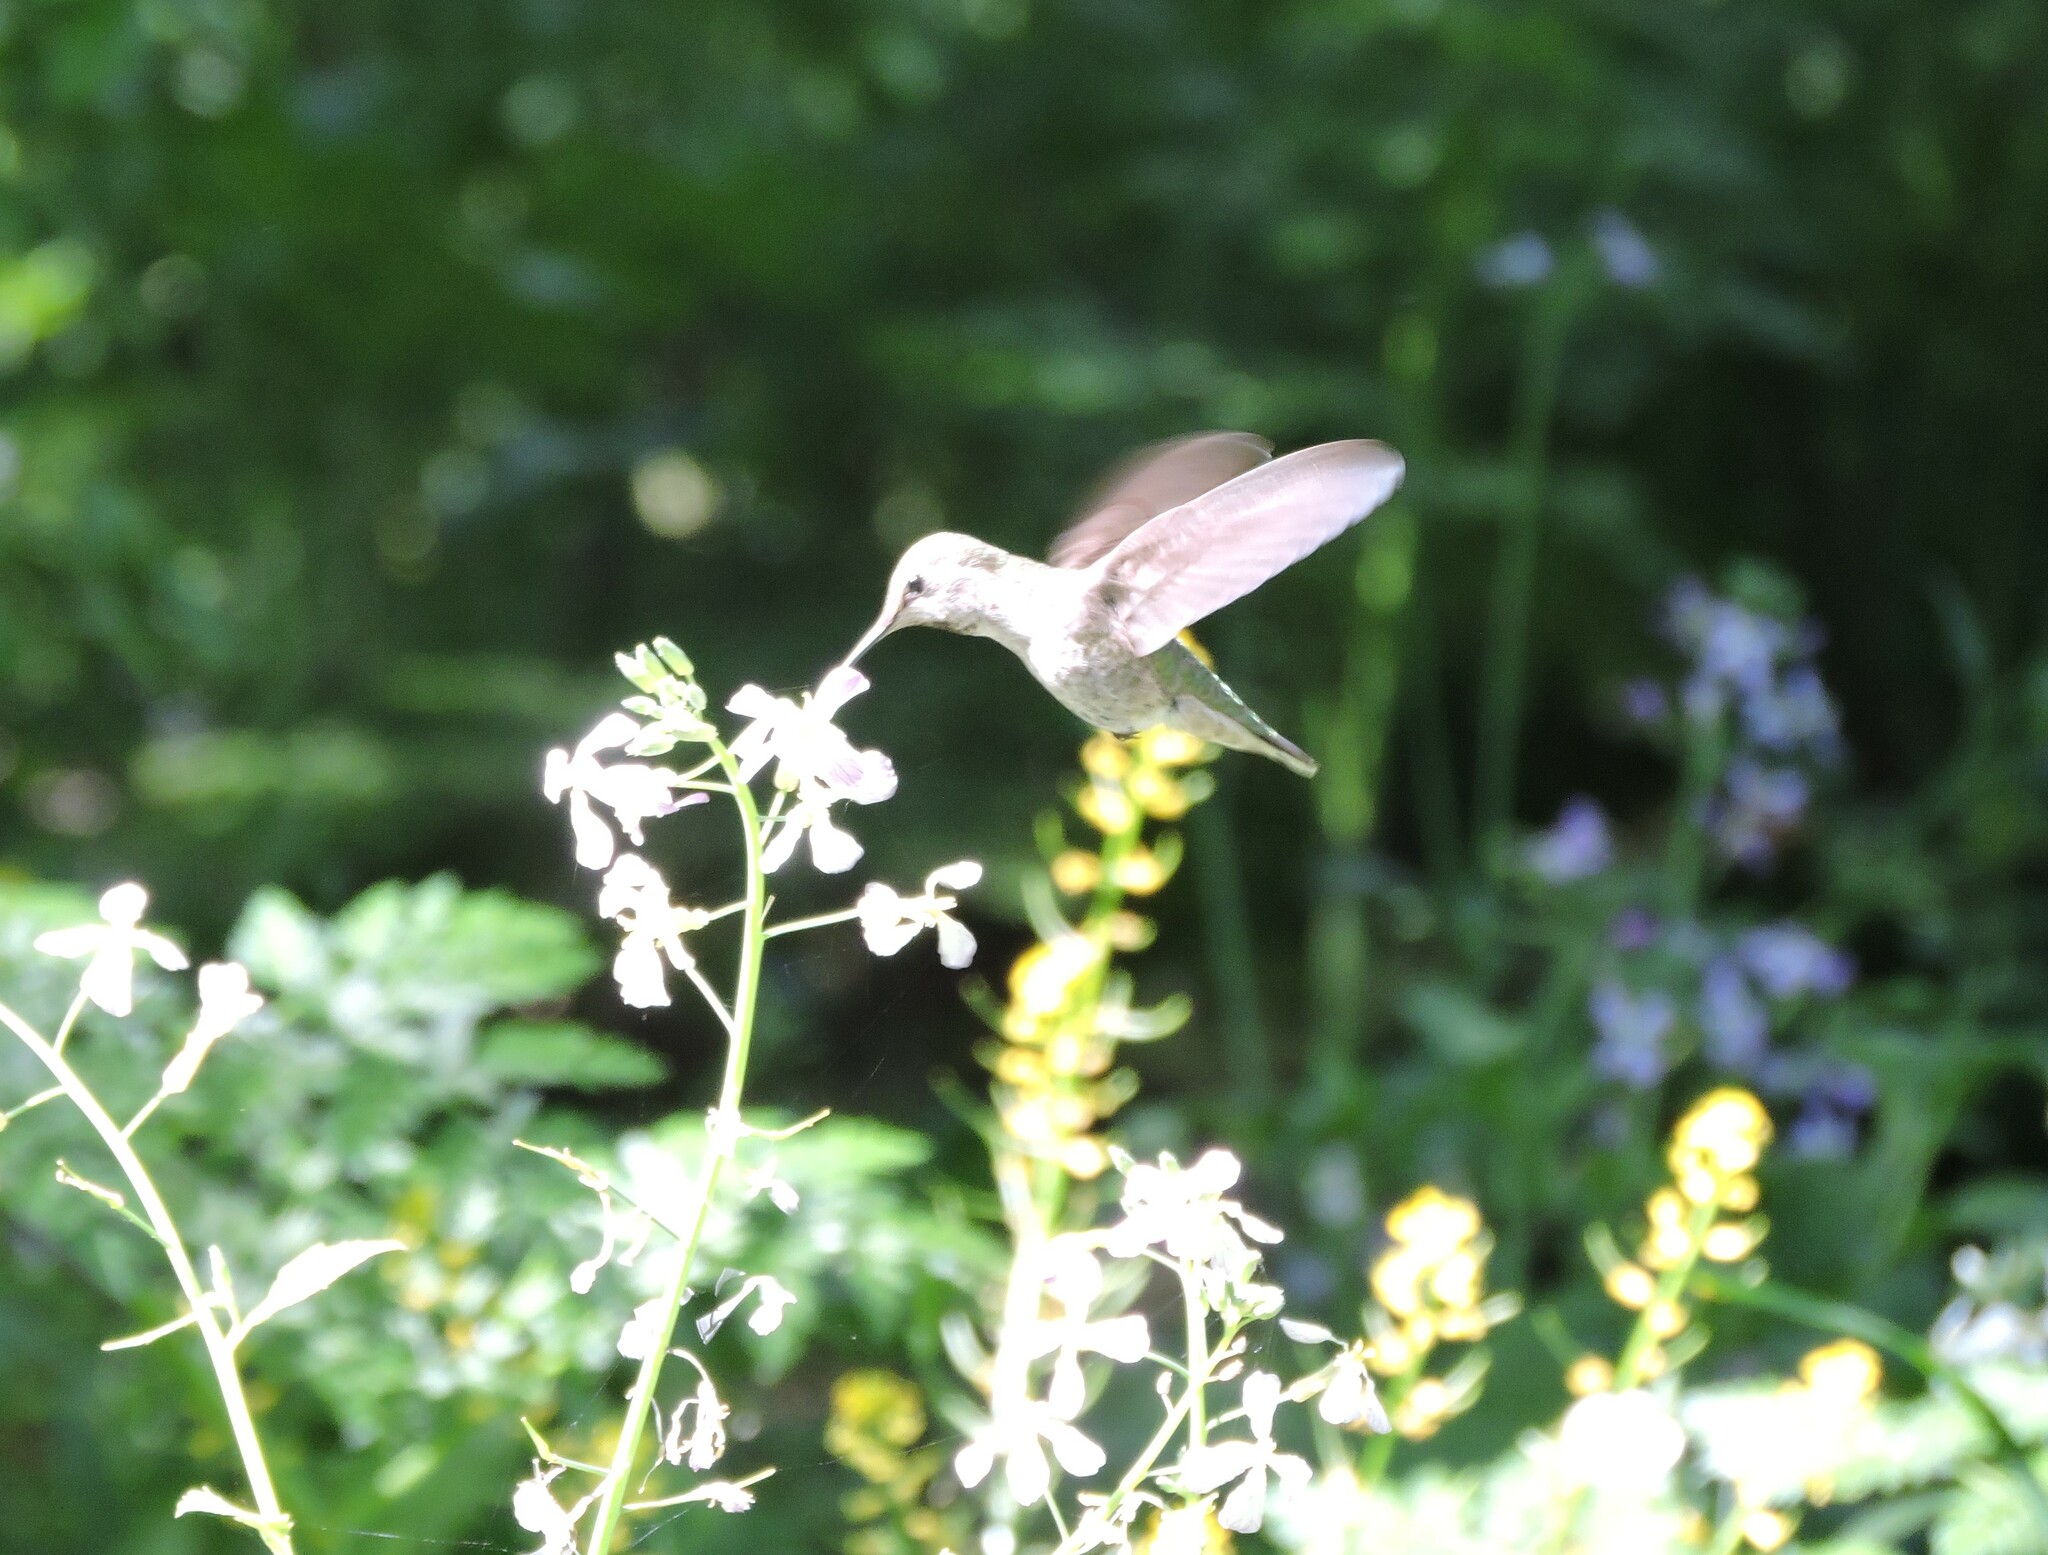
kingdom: Animalia
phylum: Chordata
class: Aves
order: Apodiformes
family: Trochilidae
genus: Calypte
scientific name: Calypte anna
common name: Anna's hummingbird
